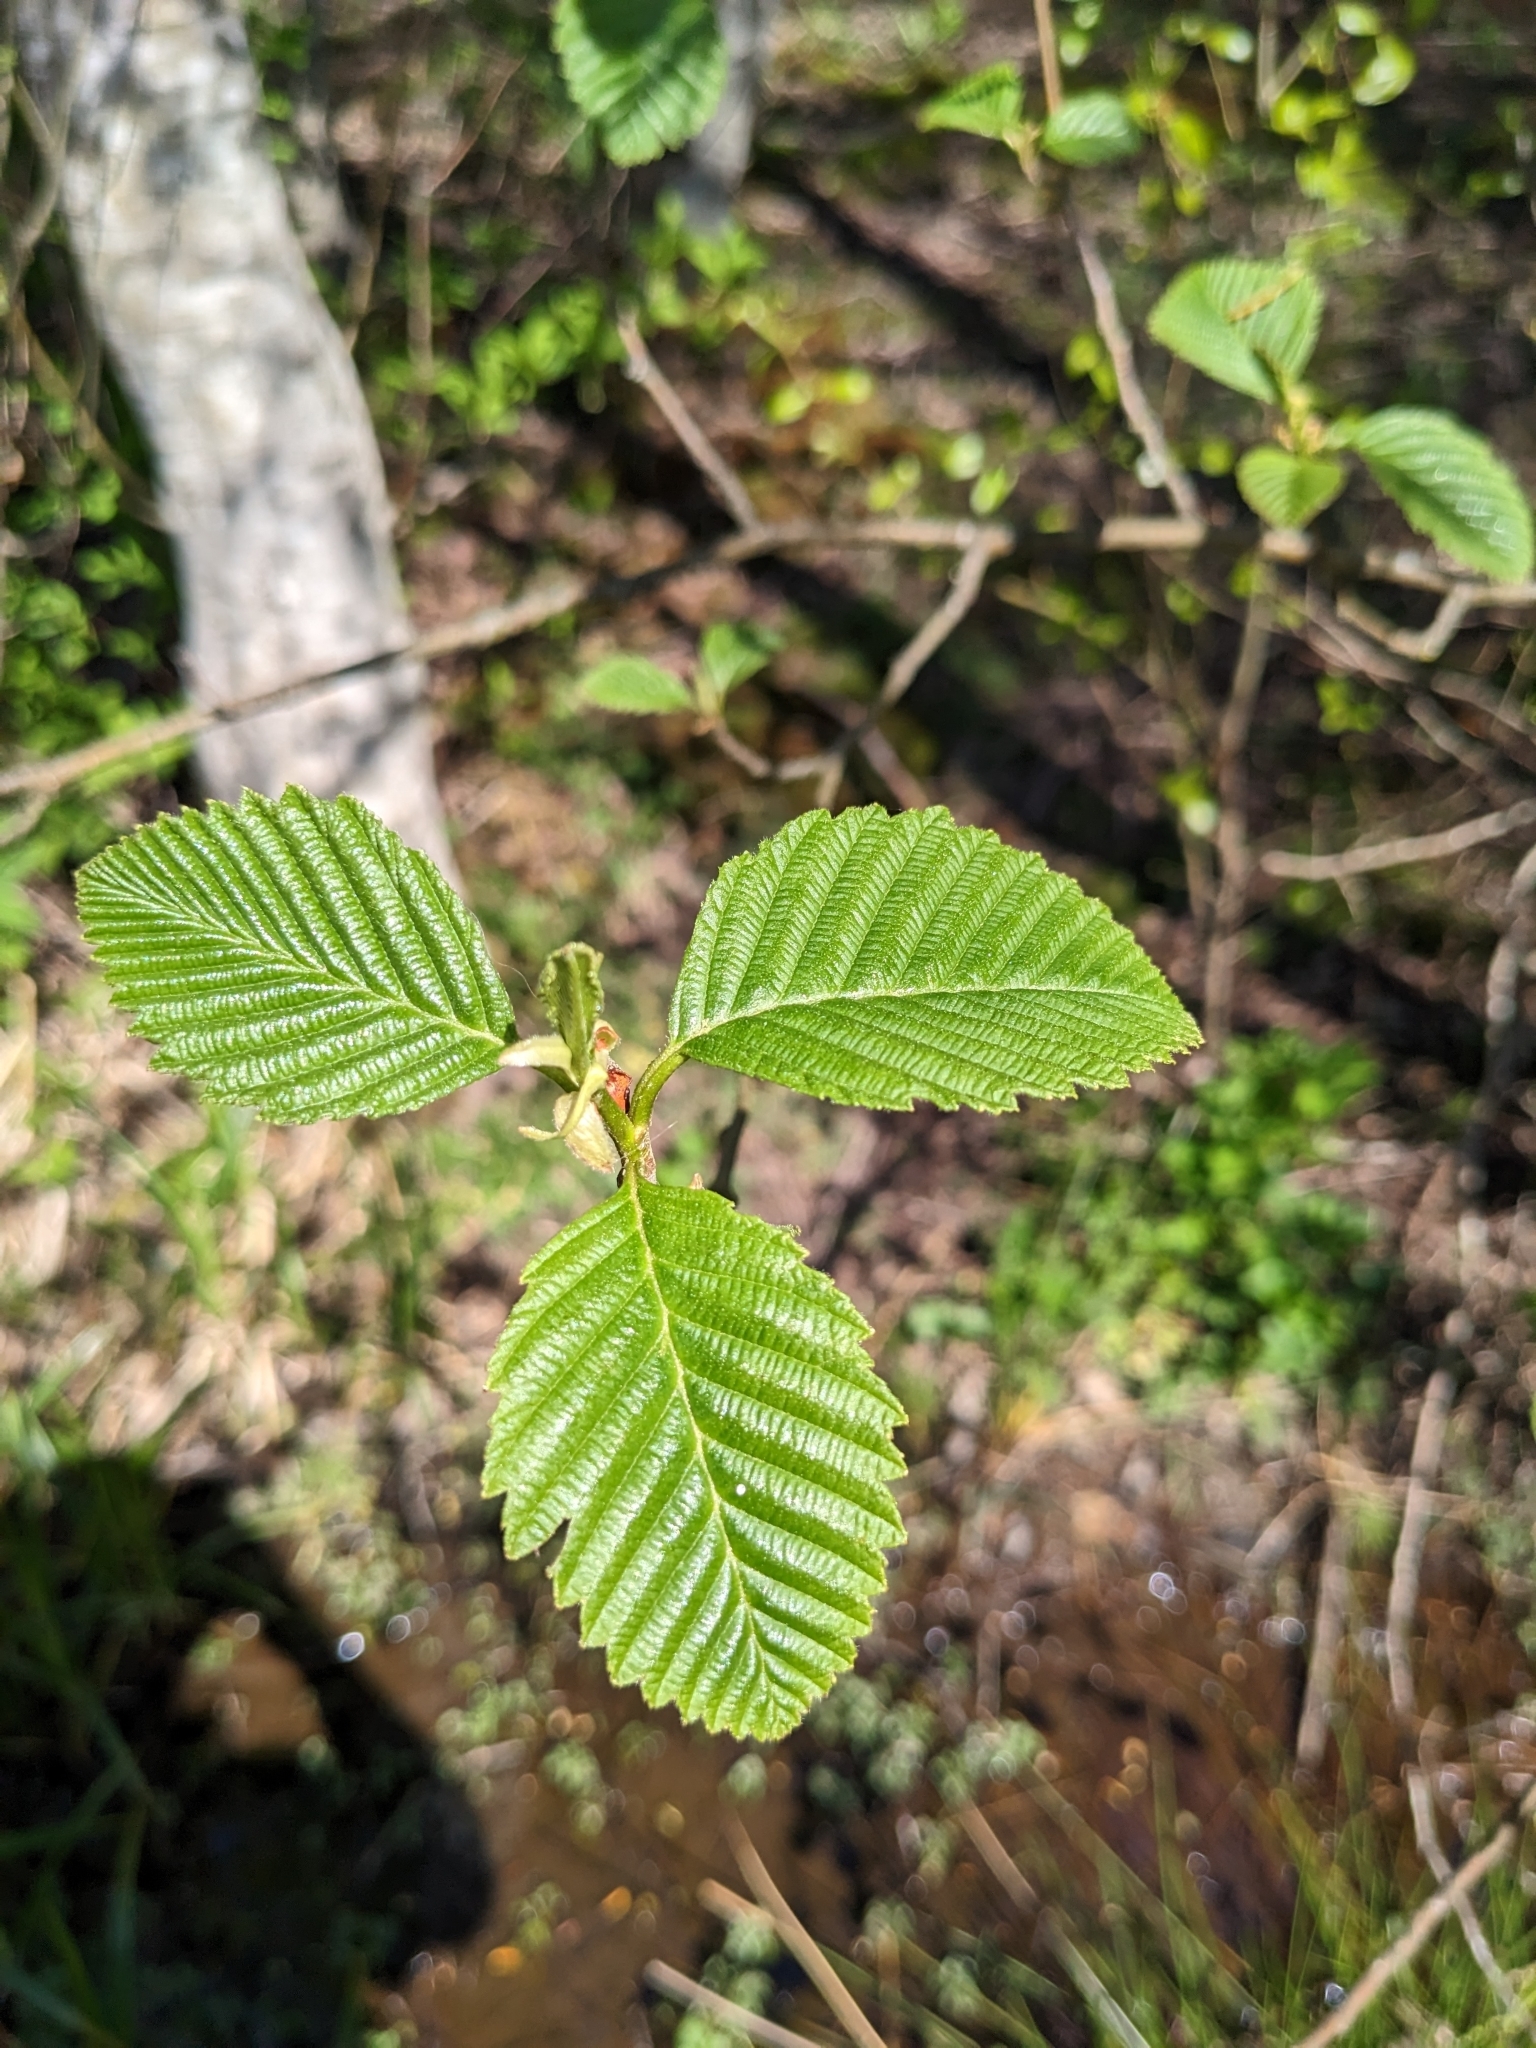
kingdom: Plantae
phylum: Tracheophyta
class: Magnoliopsida
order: Fagales
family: Betulaceae
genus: Alnus
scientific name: Alnus rubra
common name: Red alder
